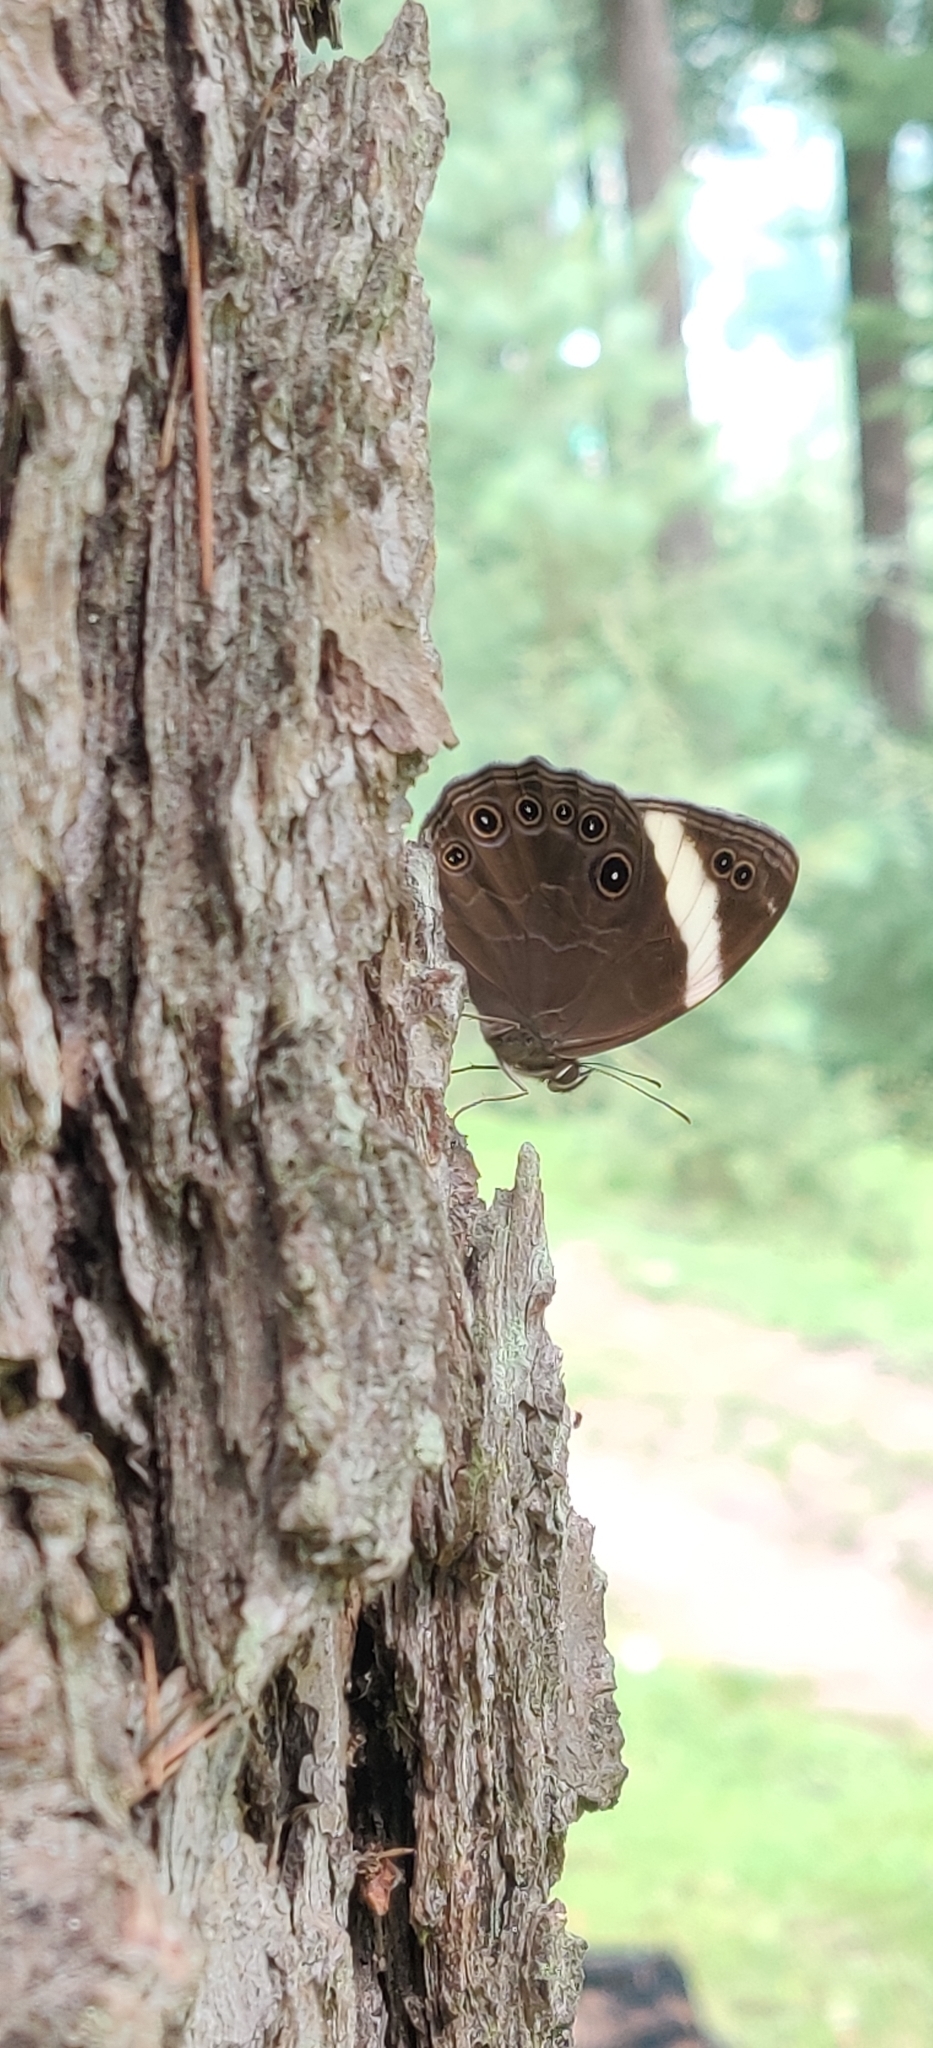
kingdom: Animalia
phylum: Arthropoda
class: Insecta
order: Lepidoptera
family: Nymphalidae
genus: Lethe
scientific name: Lethe verma
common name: Straight-banded treebrown
